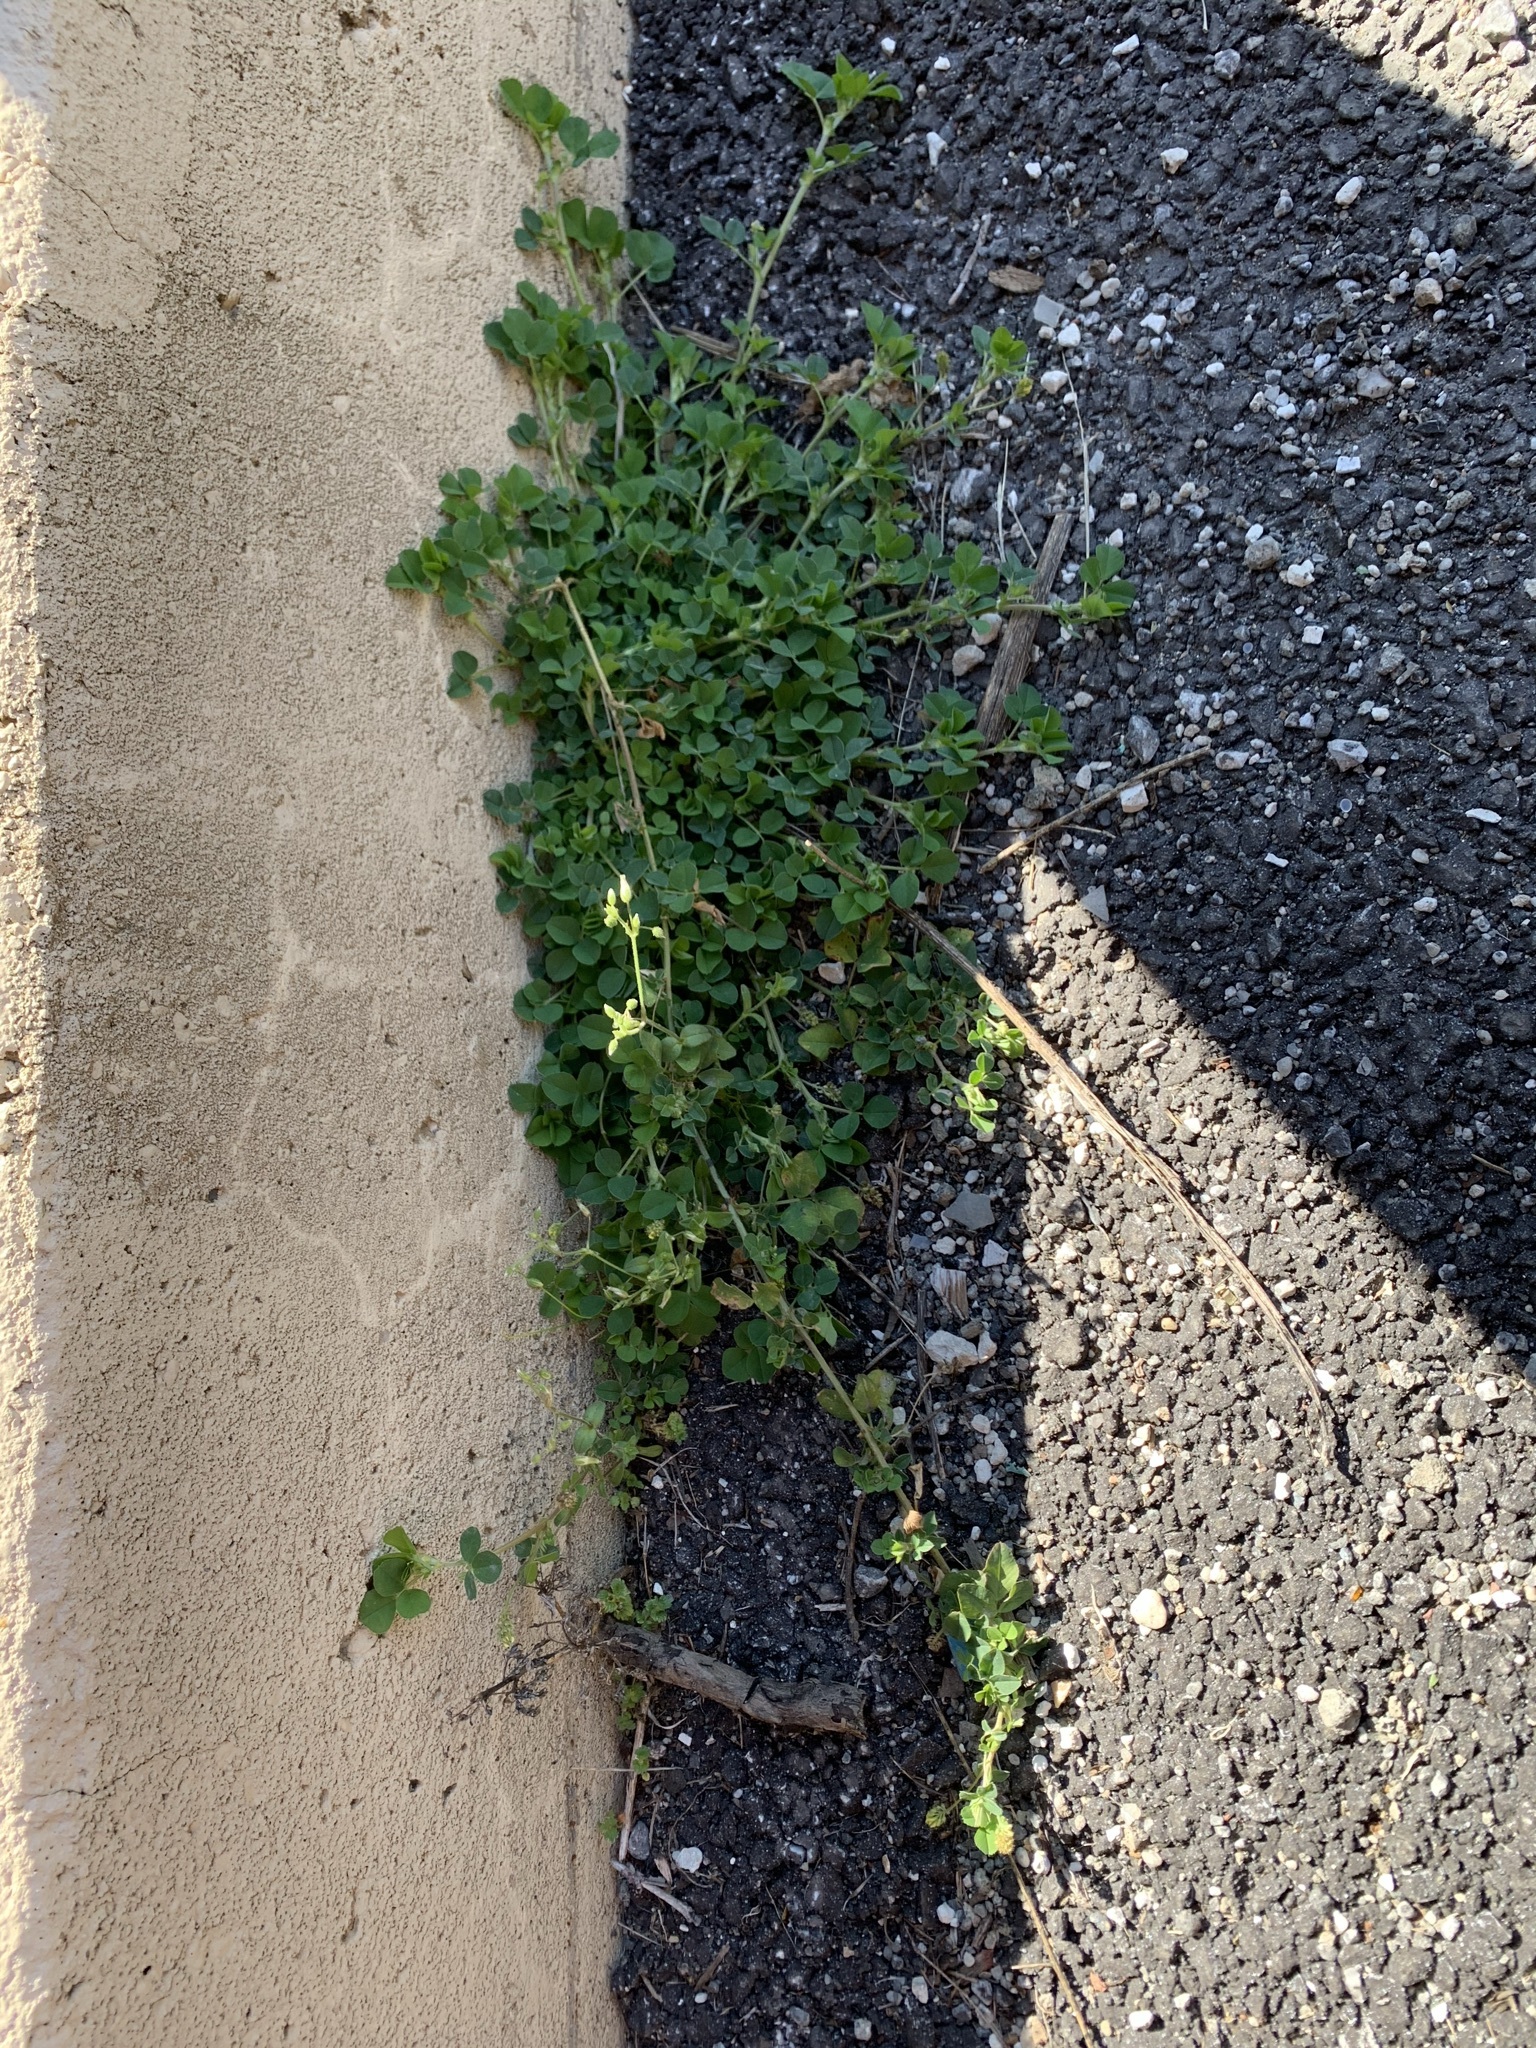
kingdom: Plantae
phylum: Tracheophyta
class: Magnoliopsida
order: Fabales
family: Fabaceae
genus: Medicago
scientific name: Medicago lupulina
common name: Black medick
